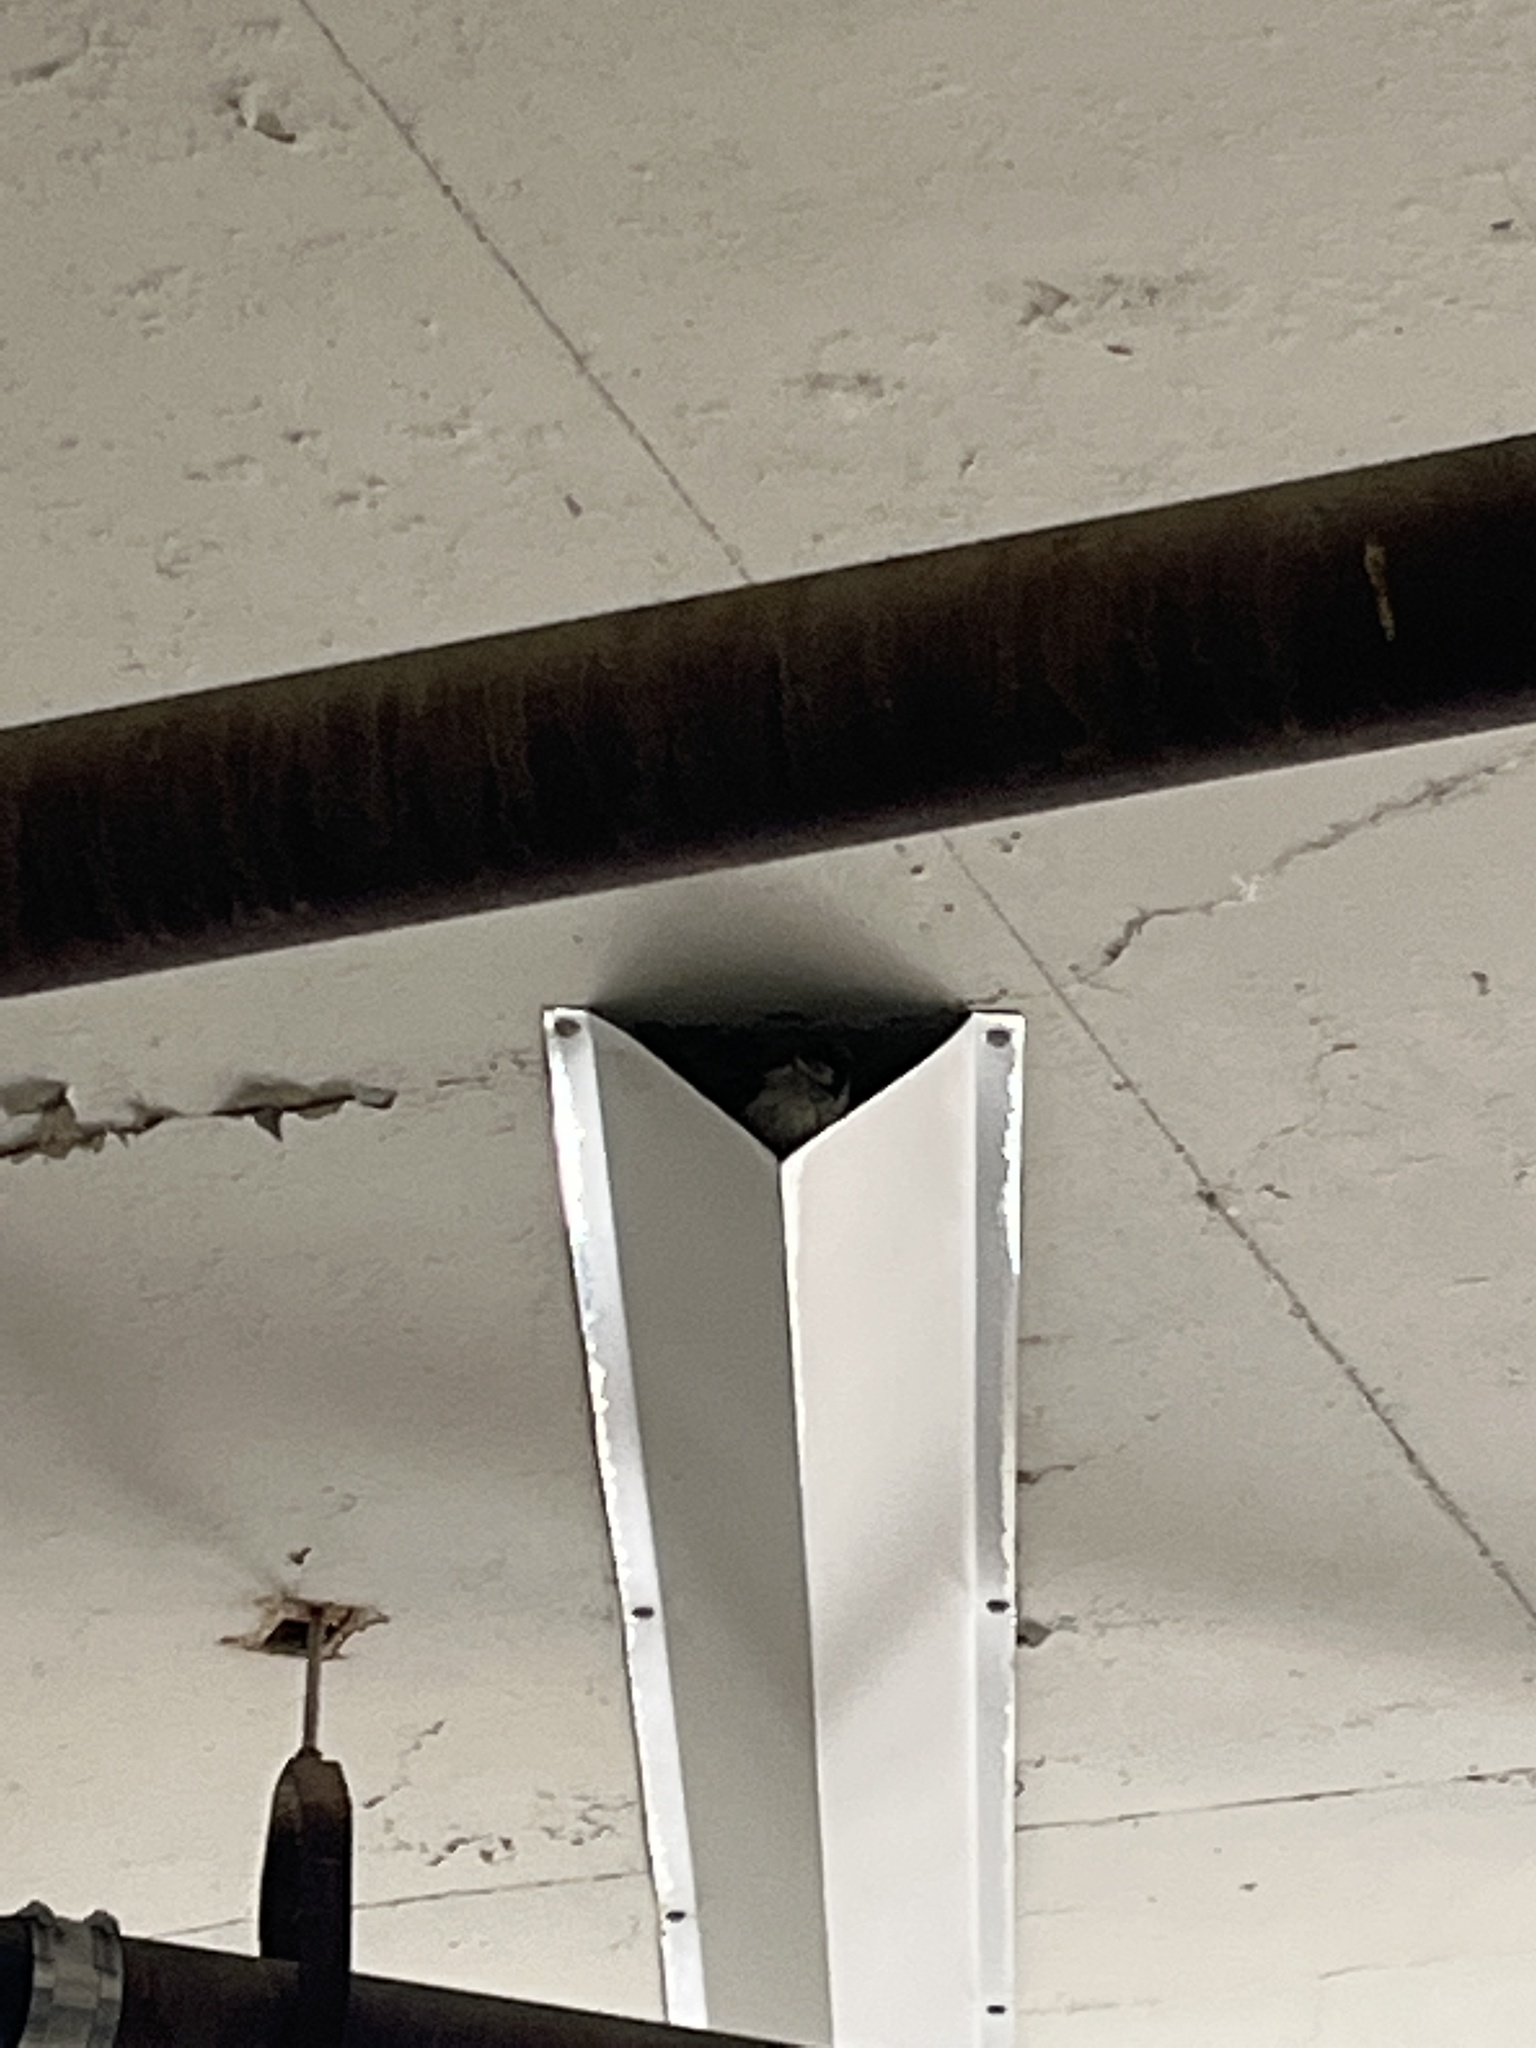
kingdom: Animalia
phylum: Chordata
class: Aves
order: Passeriformes
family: Passeridae
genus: Passer
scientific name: Passer domesticus
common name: House sparrow
